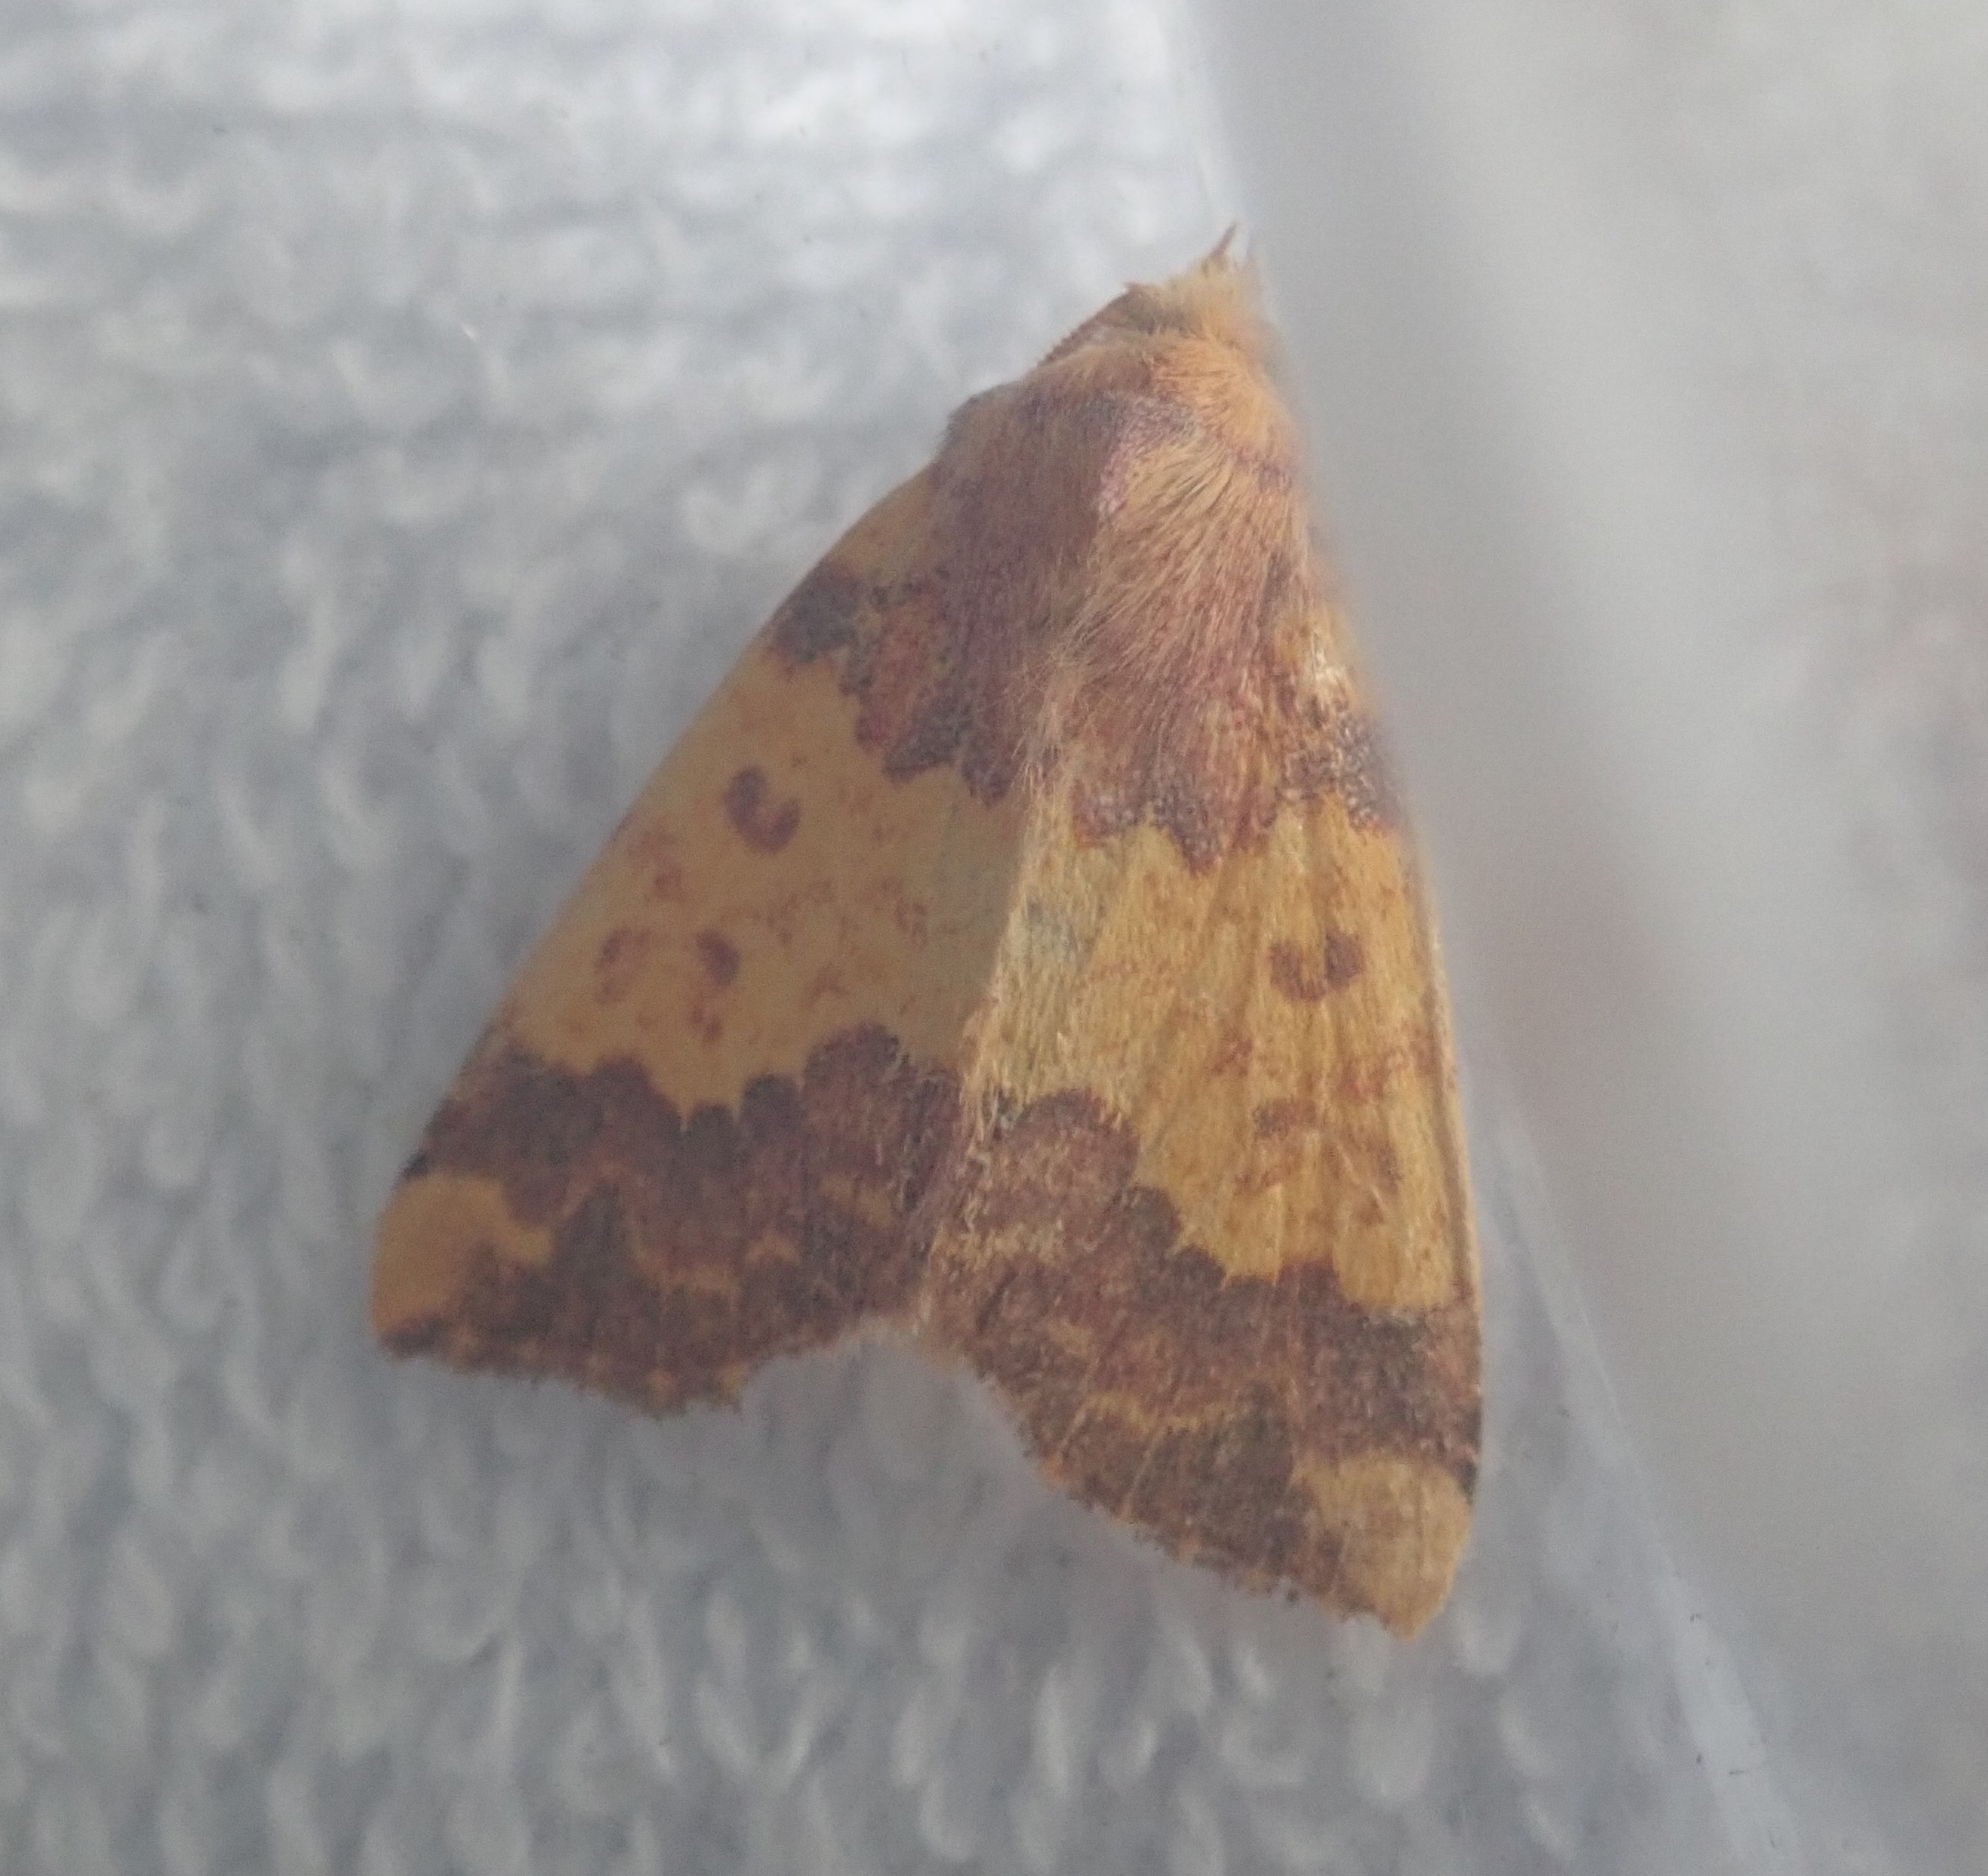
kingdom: Animalia
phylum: Arthropoda
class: Insecta
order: Lepidoptera
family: Noctuidae
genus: Tiliacea
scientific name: Tiliacea aurago
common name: Barred sallow
